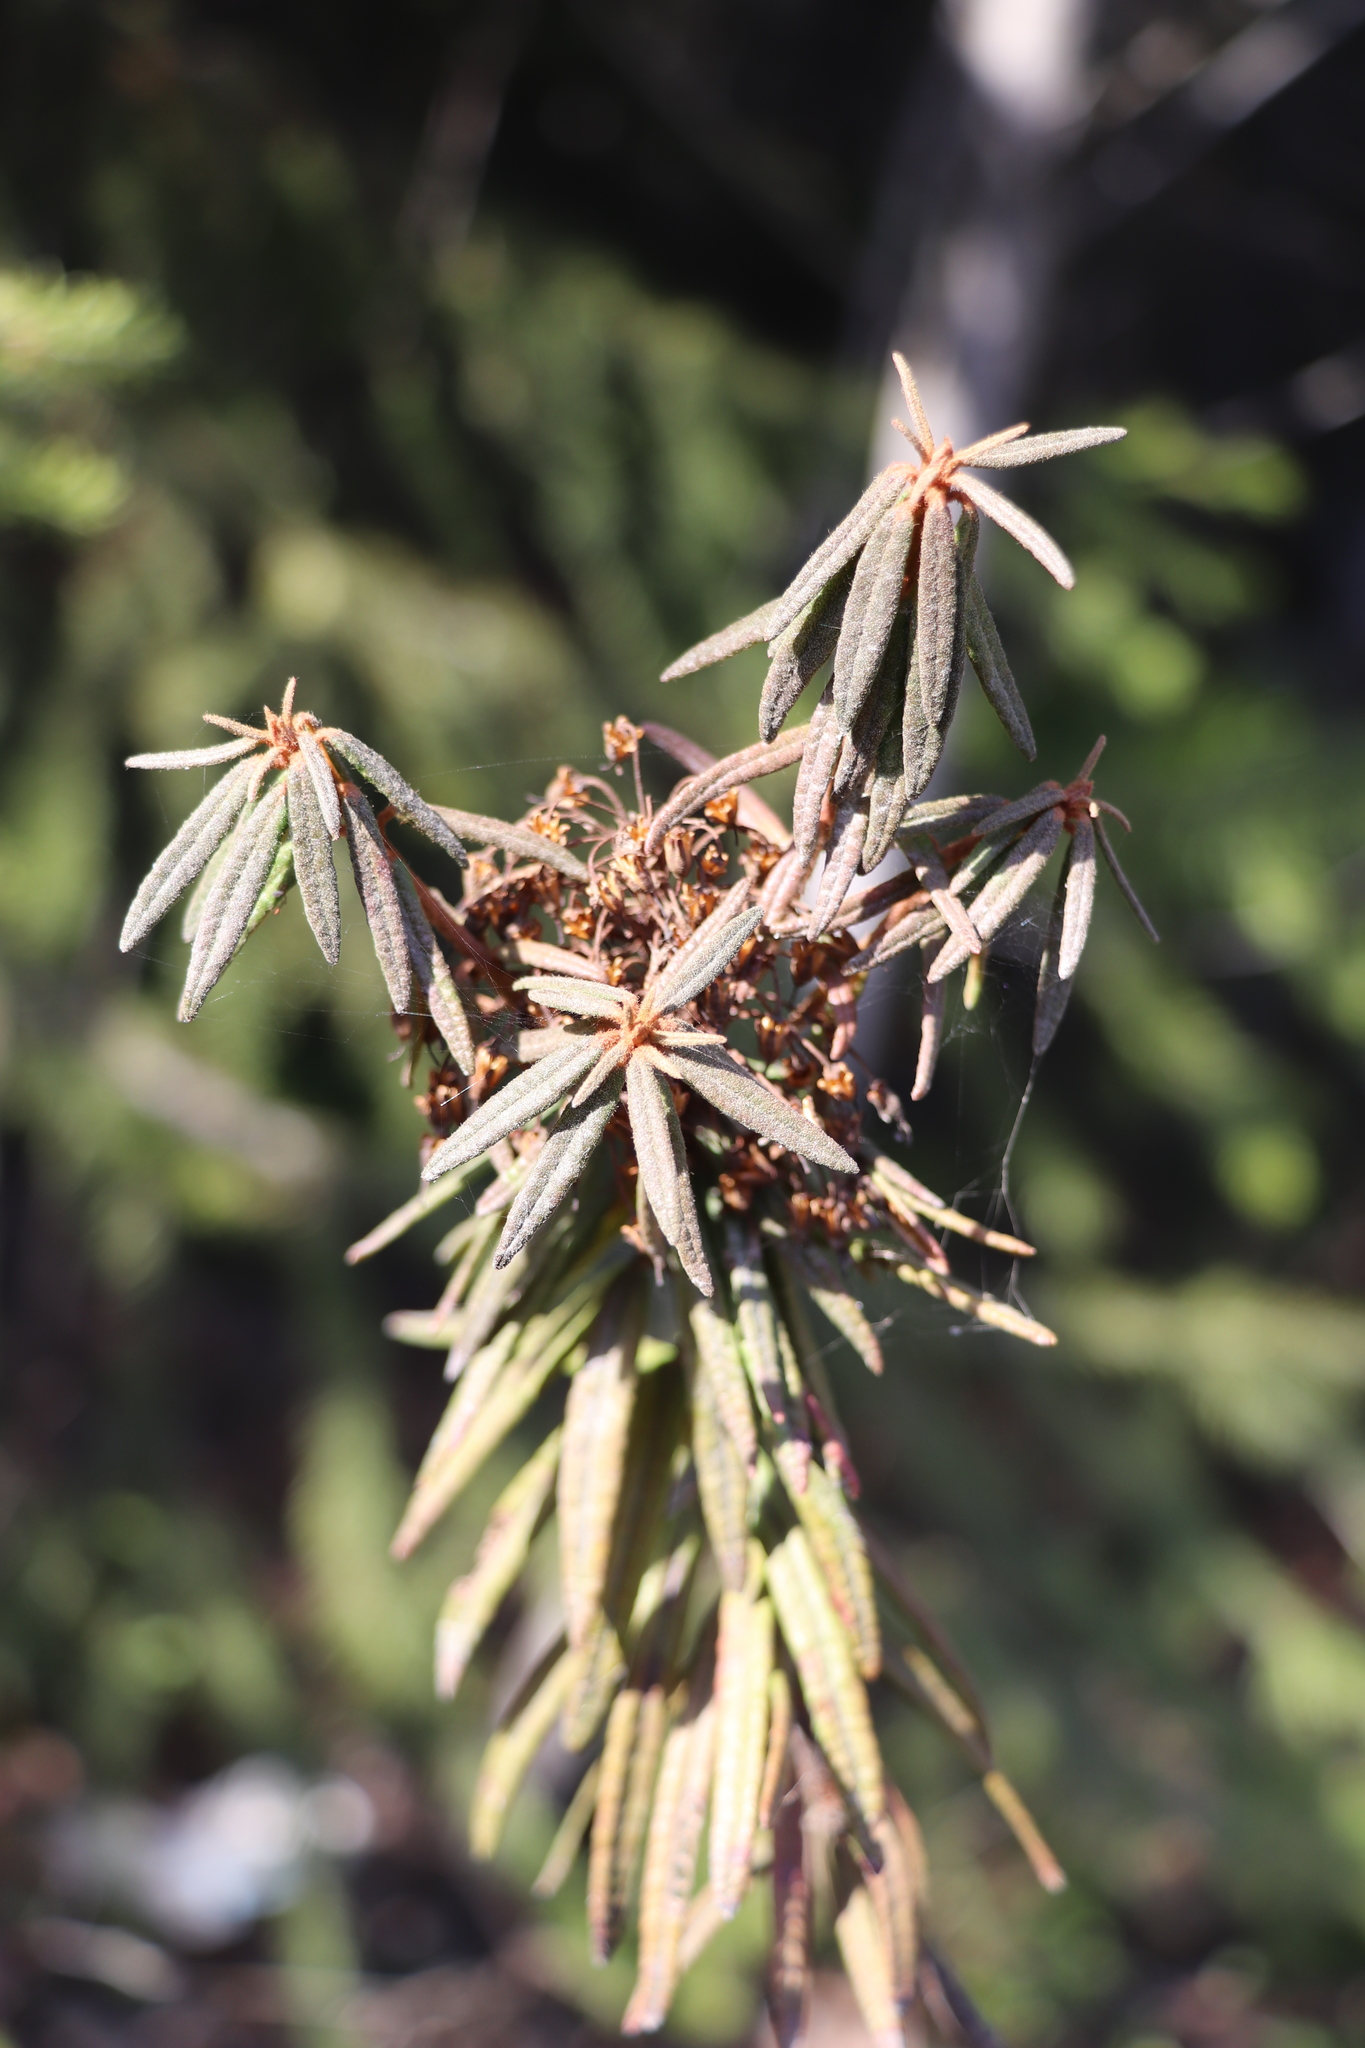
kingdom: Plantae
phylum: Tracheophyta
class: Magnoliopsida
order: Ericales
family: Ericaceae
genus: Rhododendron
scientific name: Rhododendron tomentosum
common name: Marsh labrador tea
